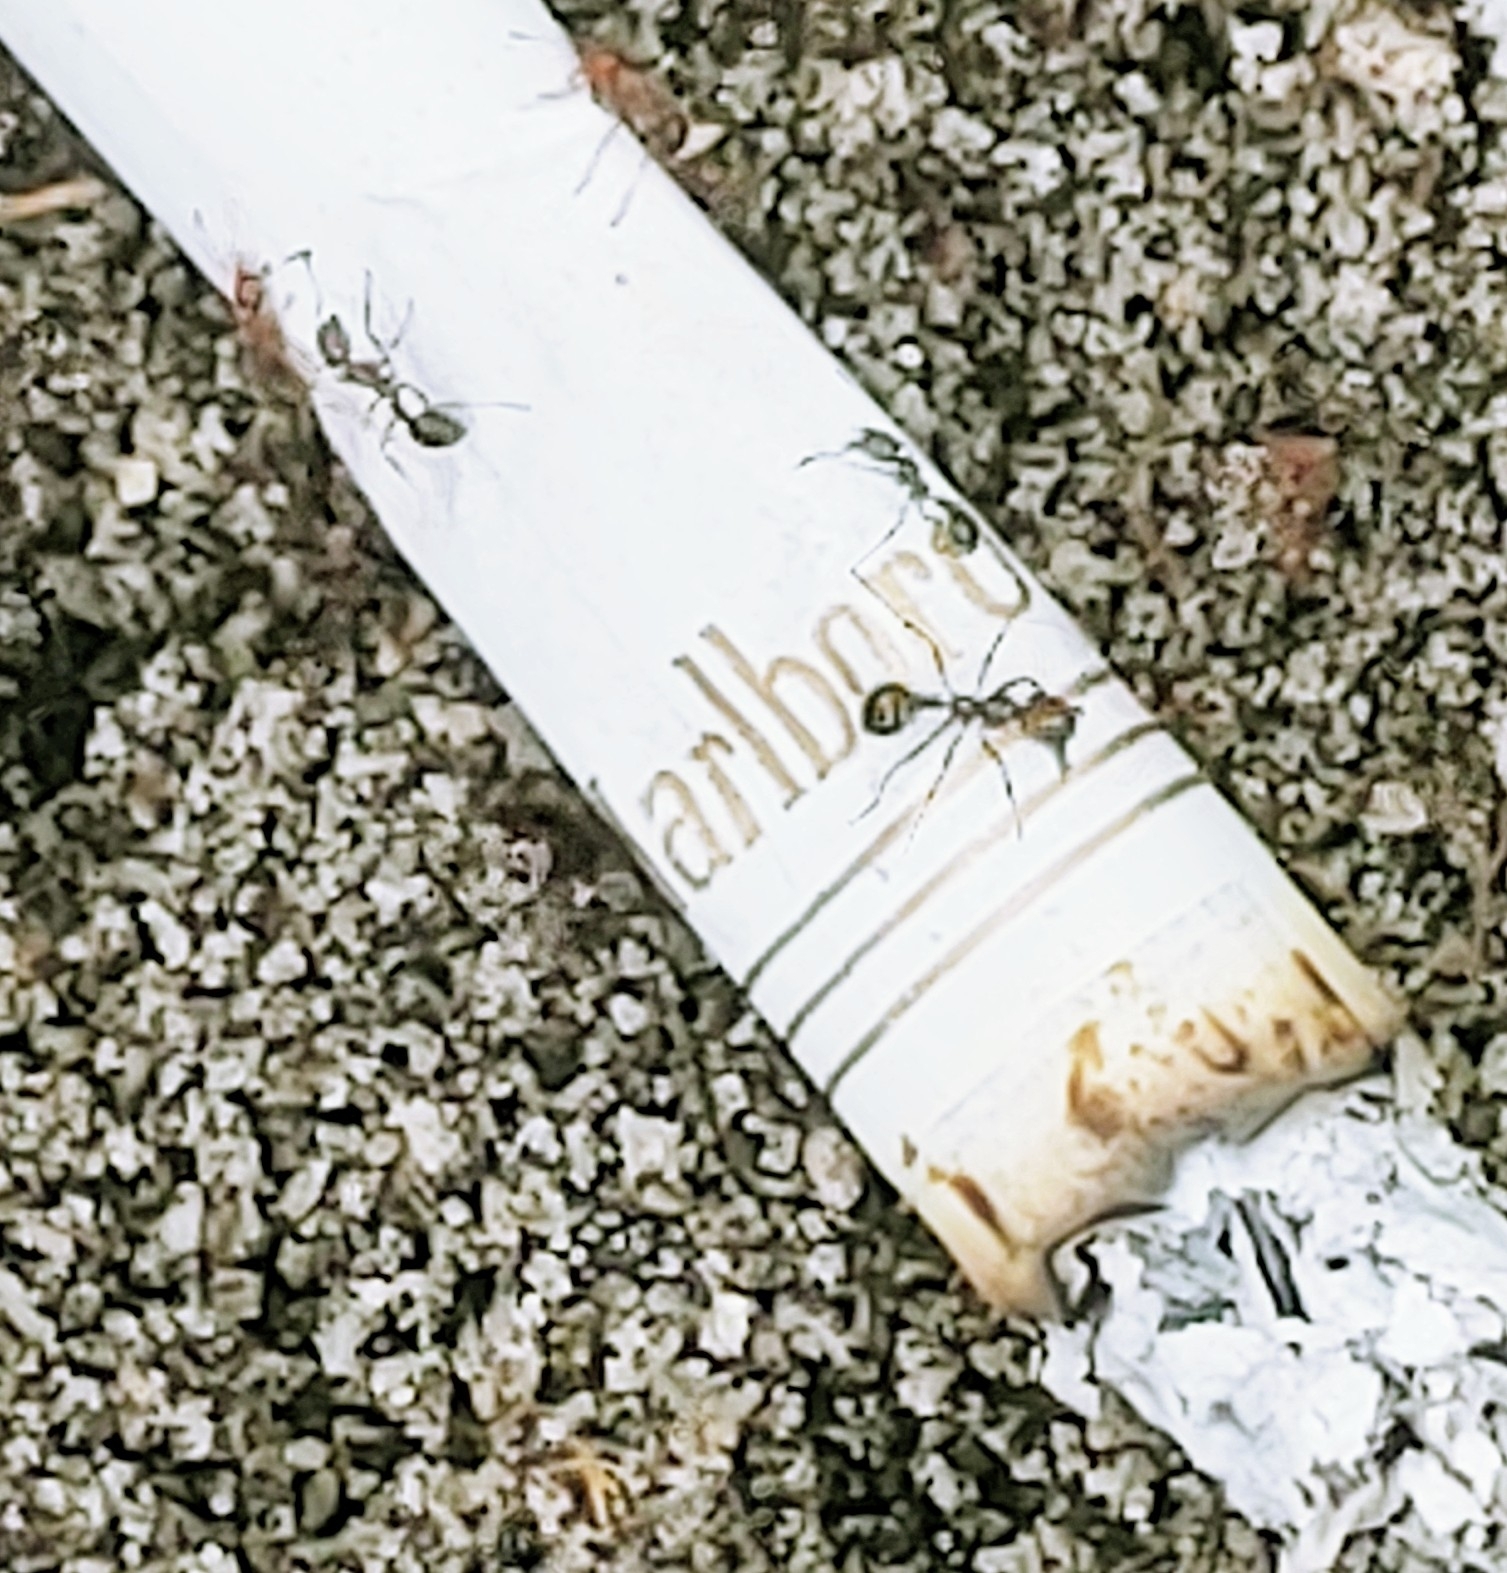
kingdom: Animalia
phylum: Arthropoda
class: Insecta
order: Hymenoptera
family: Formicidae
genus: Solenopsis
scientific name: Solenopsis invicta
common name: Red imported fire ant
